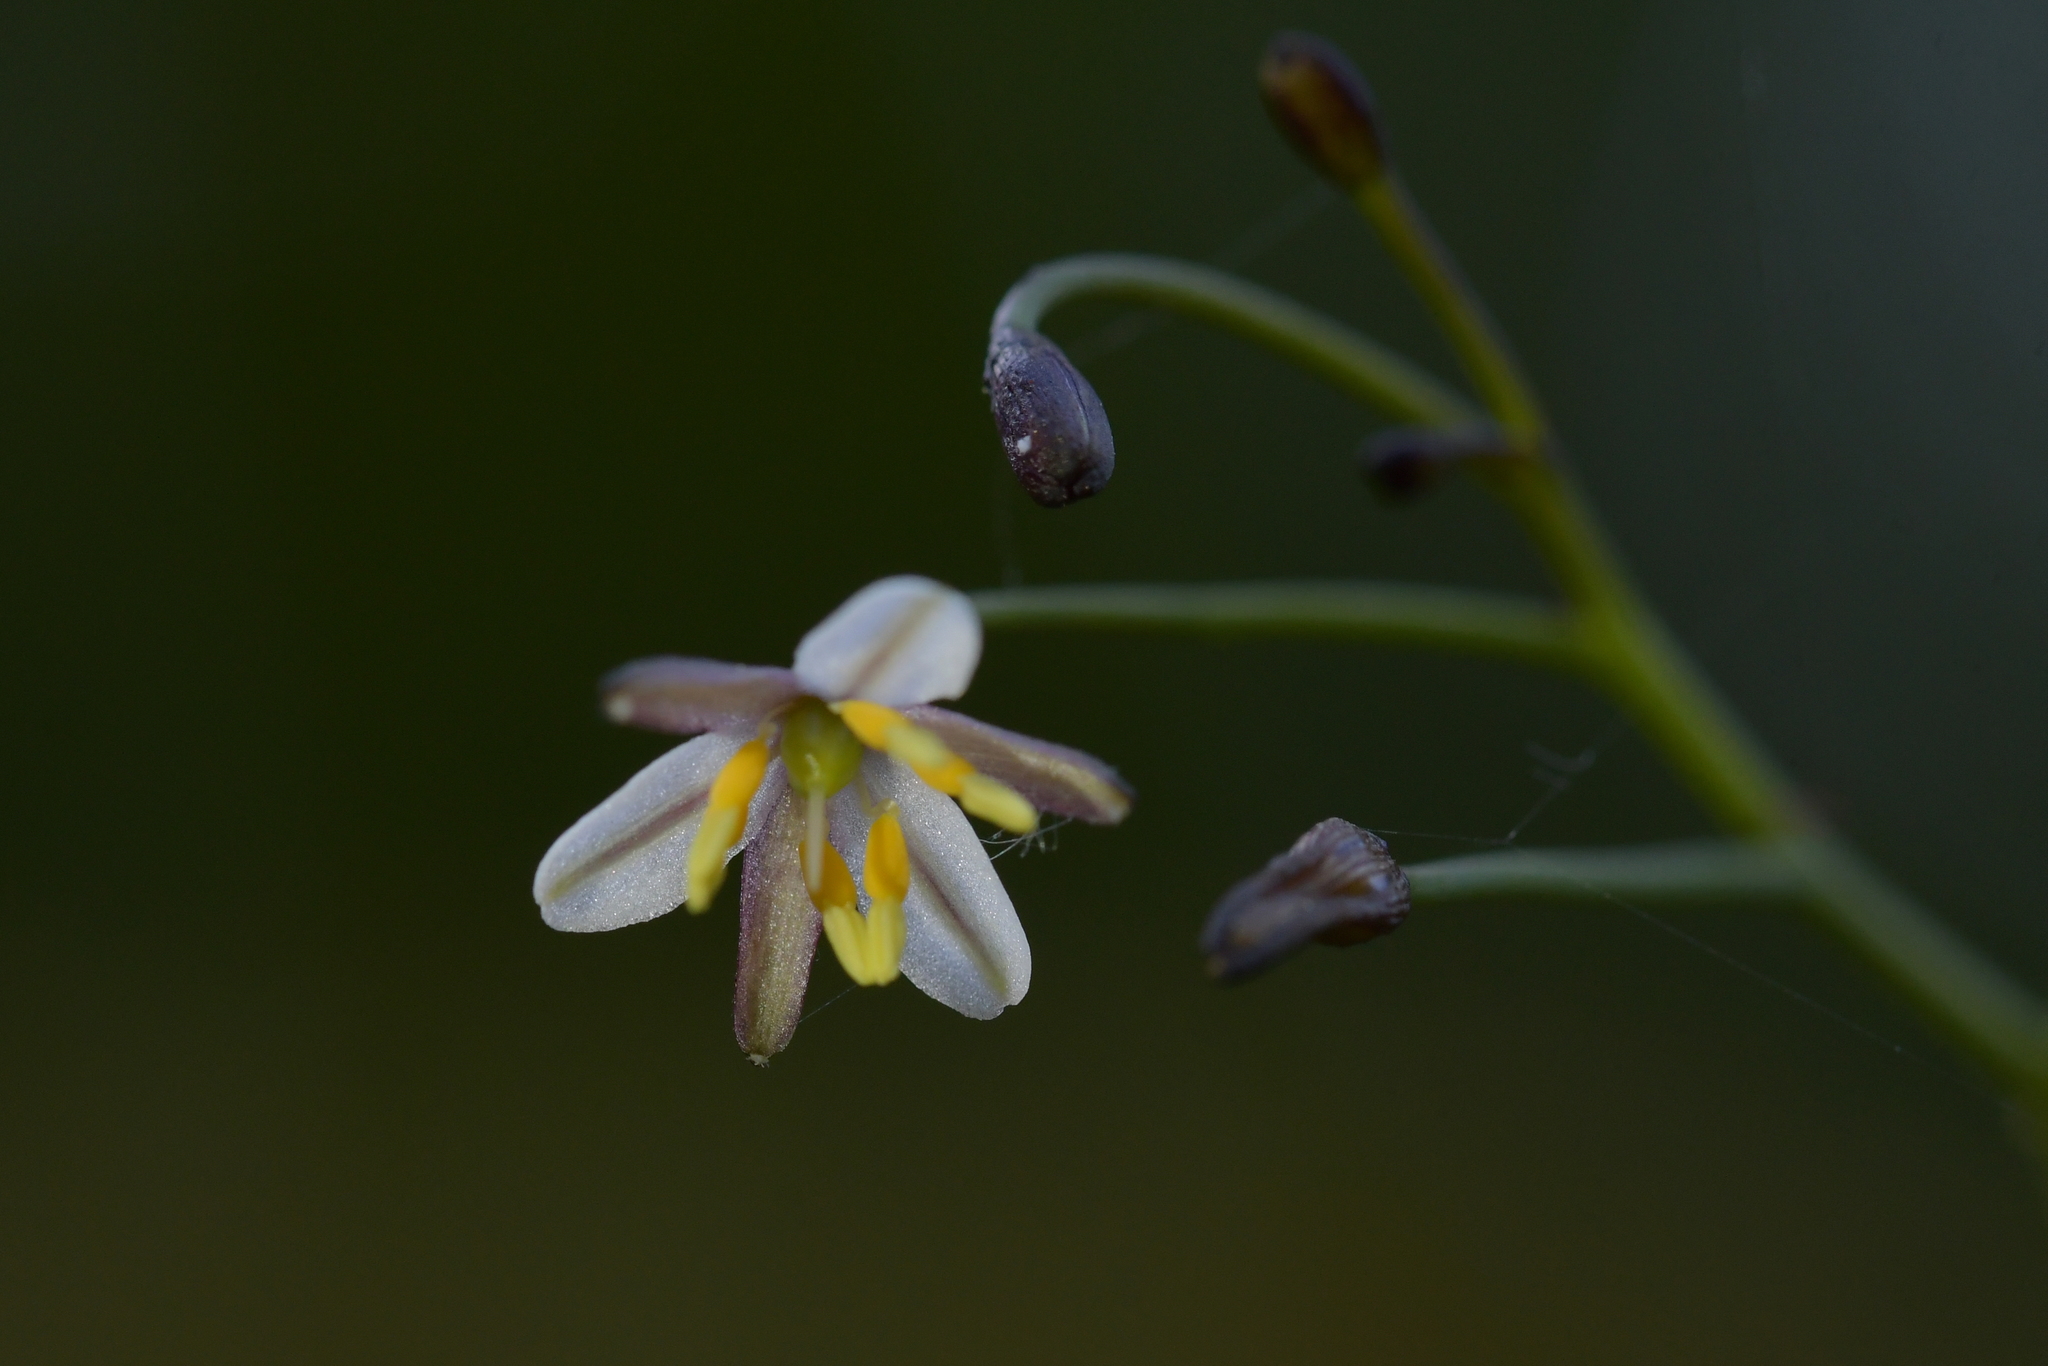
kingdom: Plantae
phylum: Tracheophyta
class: Liliopsida
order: Asparagales
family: Asphodelaceae
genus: Dianella
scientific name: Dianella nigra
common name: New zealand-blueberry
